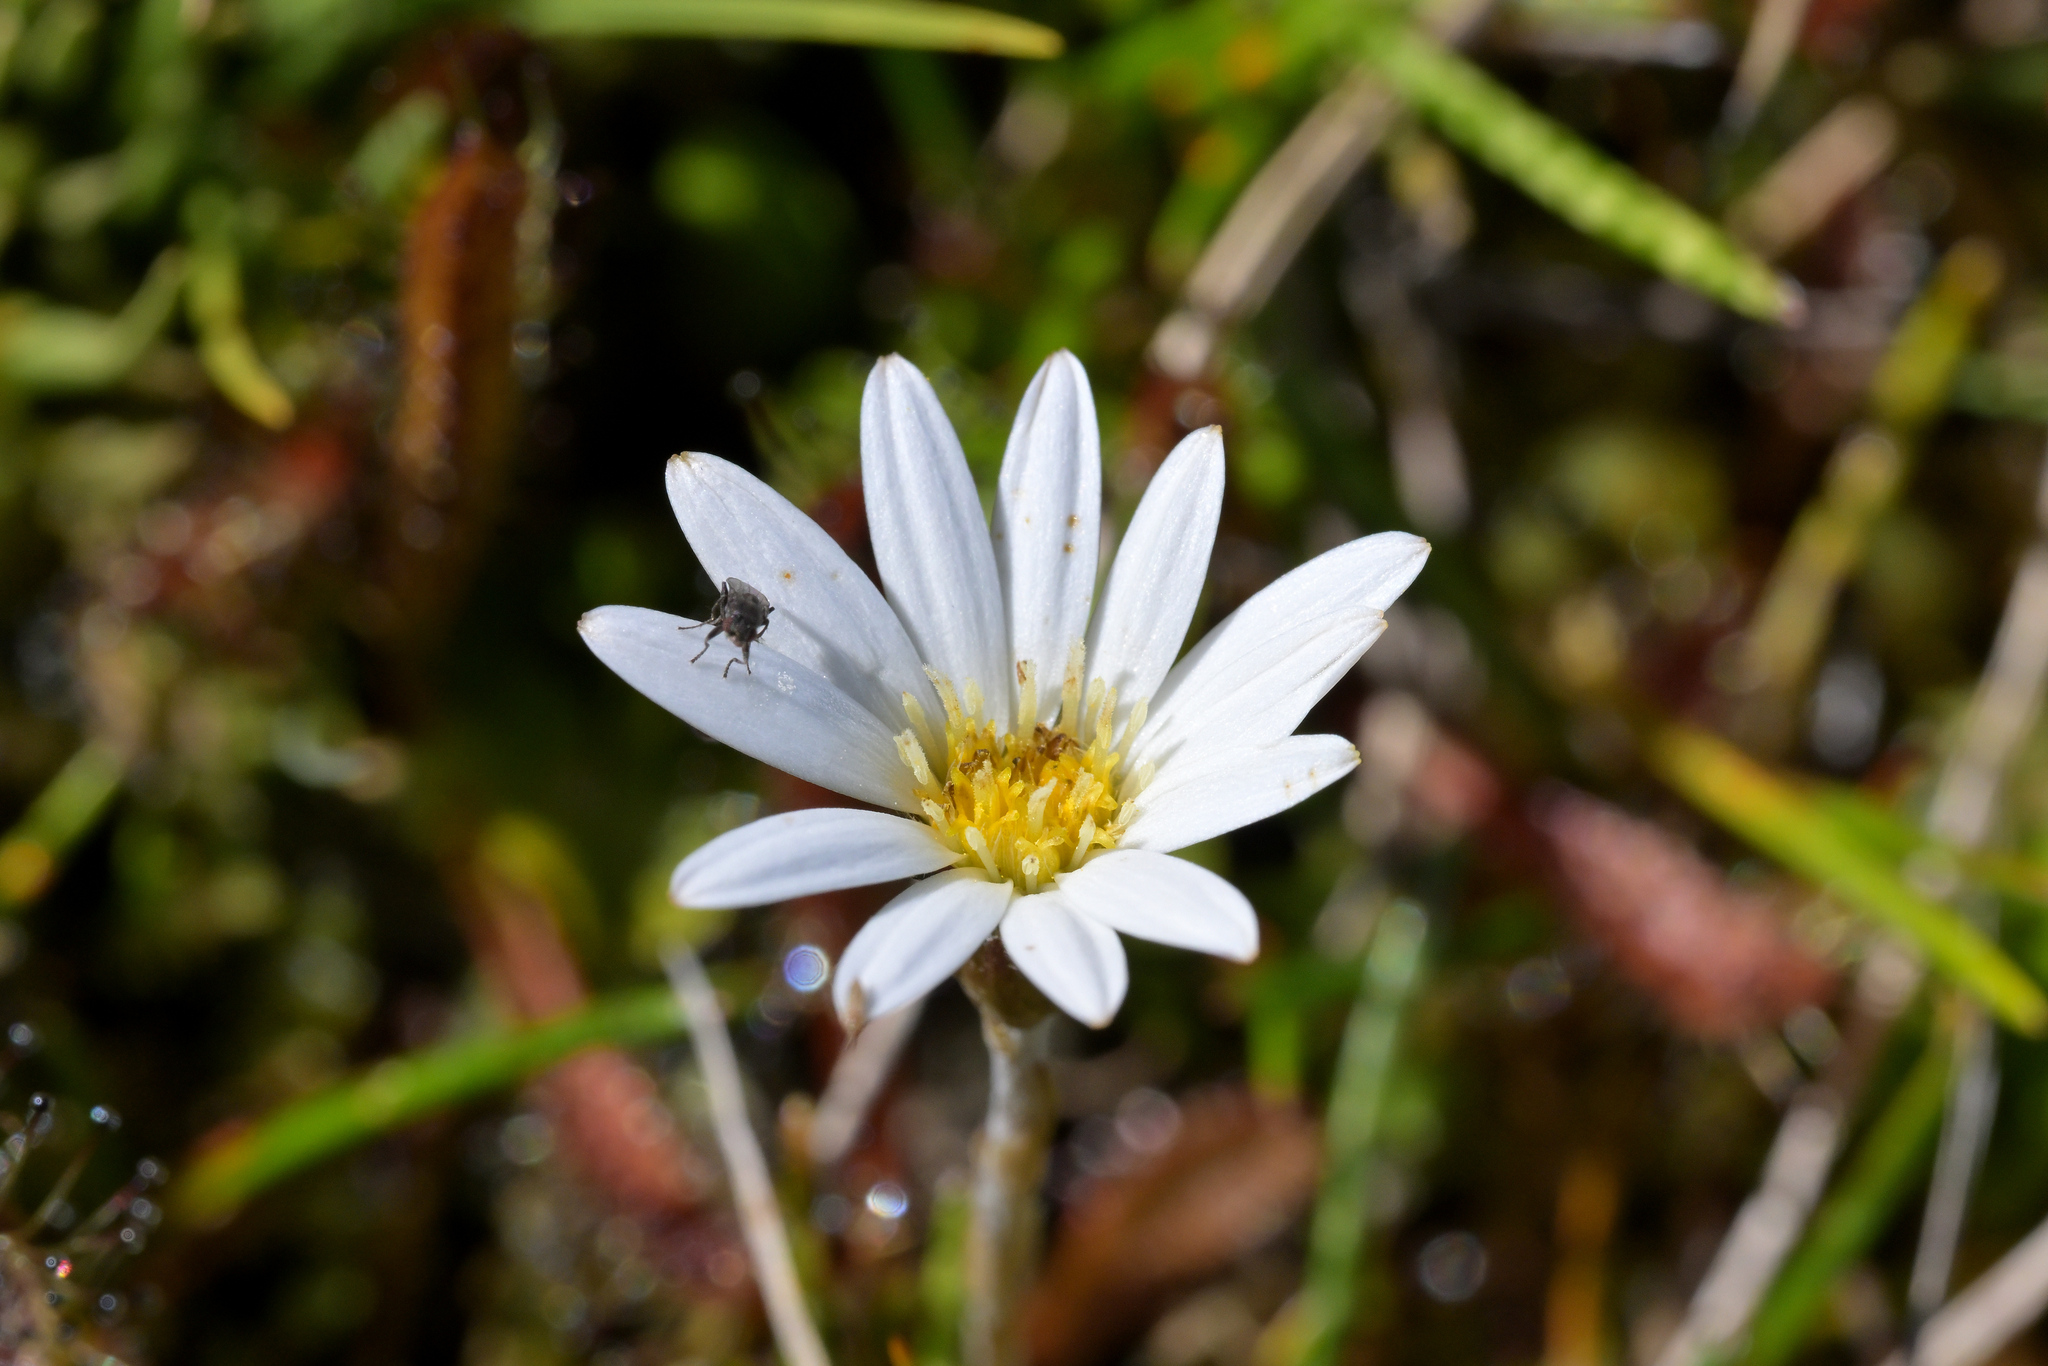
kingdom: Plantae
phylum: Tracheophyta
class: Magnoliopsida
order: Asterales
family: Asteraceae
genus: Celmisia
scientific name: Celmisia alpina
